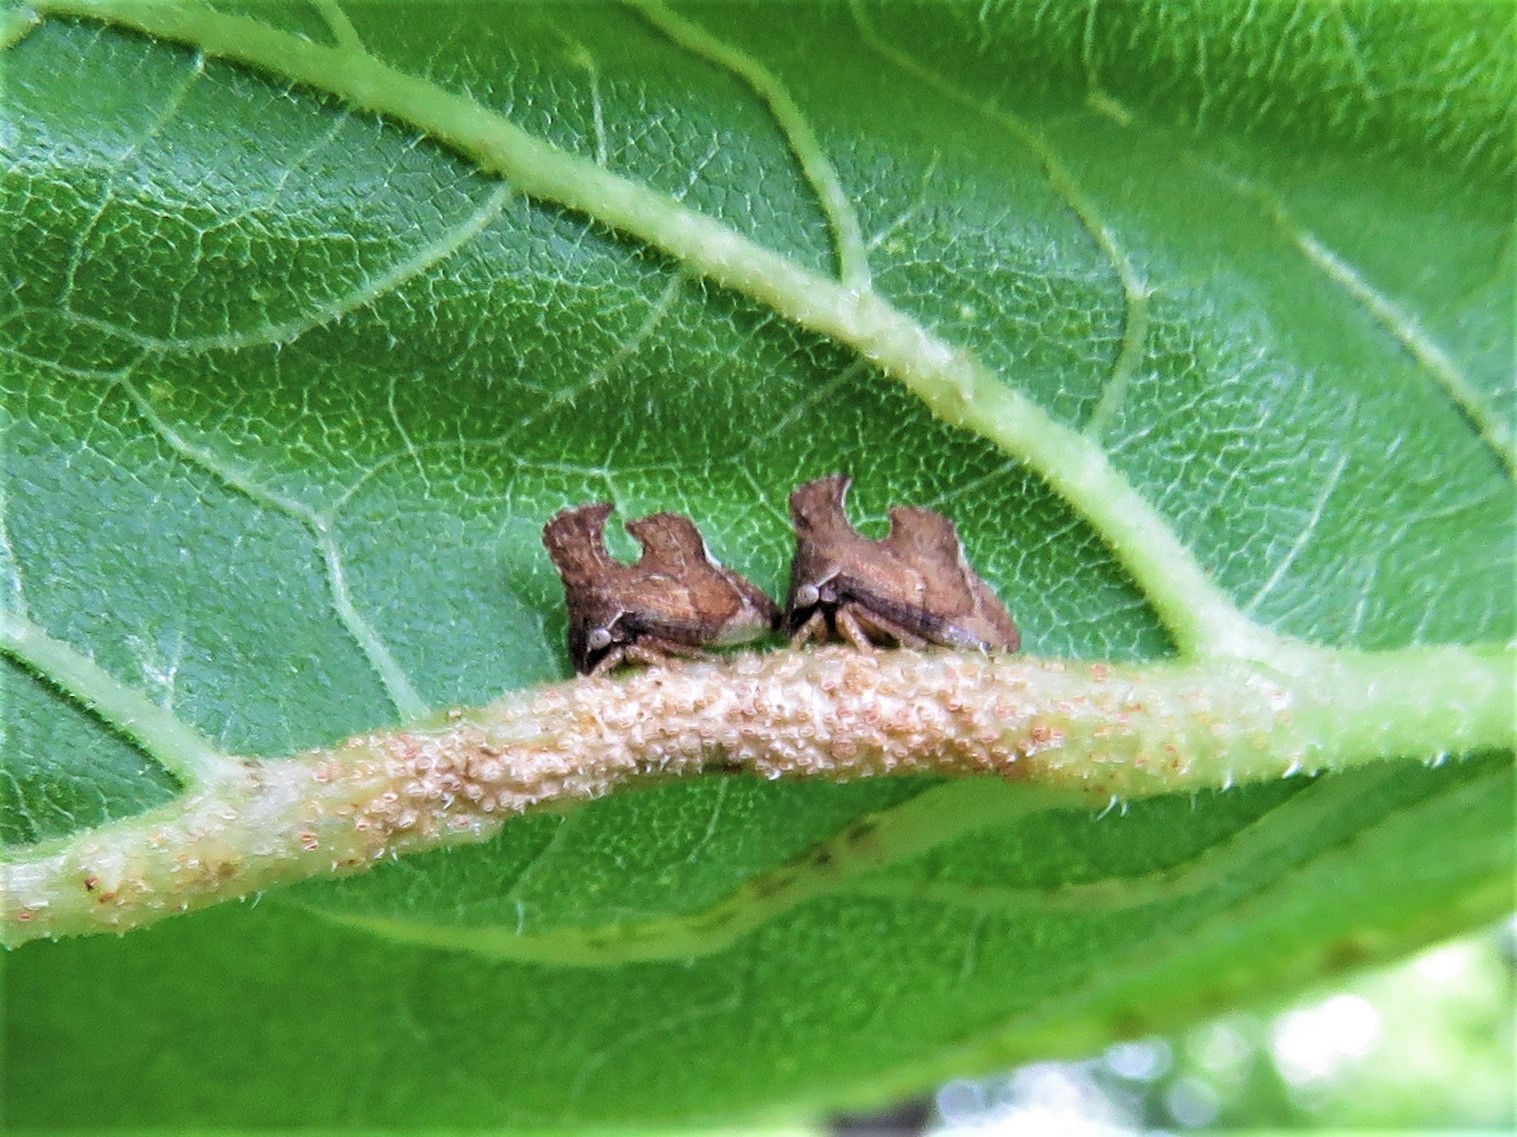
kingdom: Animalia
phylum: Arthropoda
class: Insecta
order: Hemiptera
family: Membracidae
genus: Entylia
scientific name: Entylia carinata
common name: Keeled treehopper
